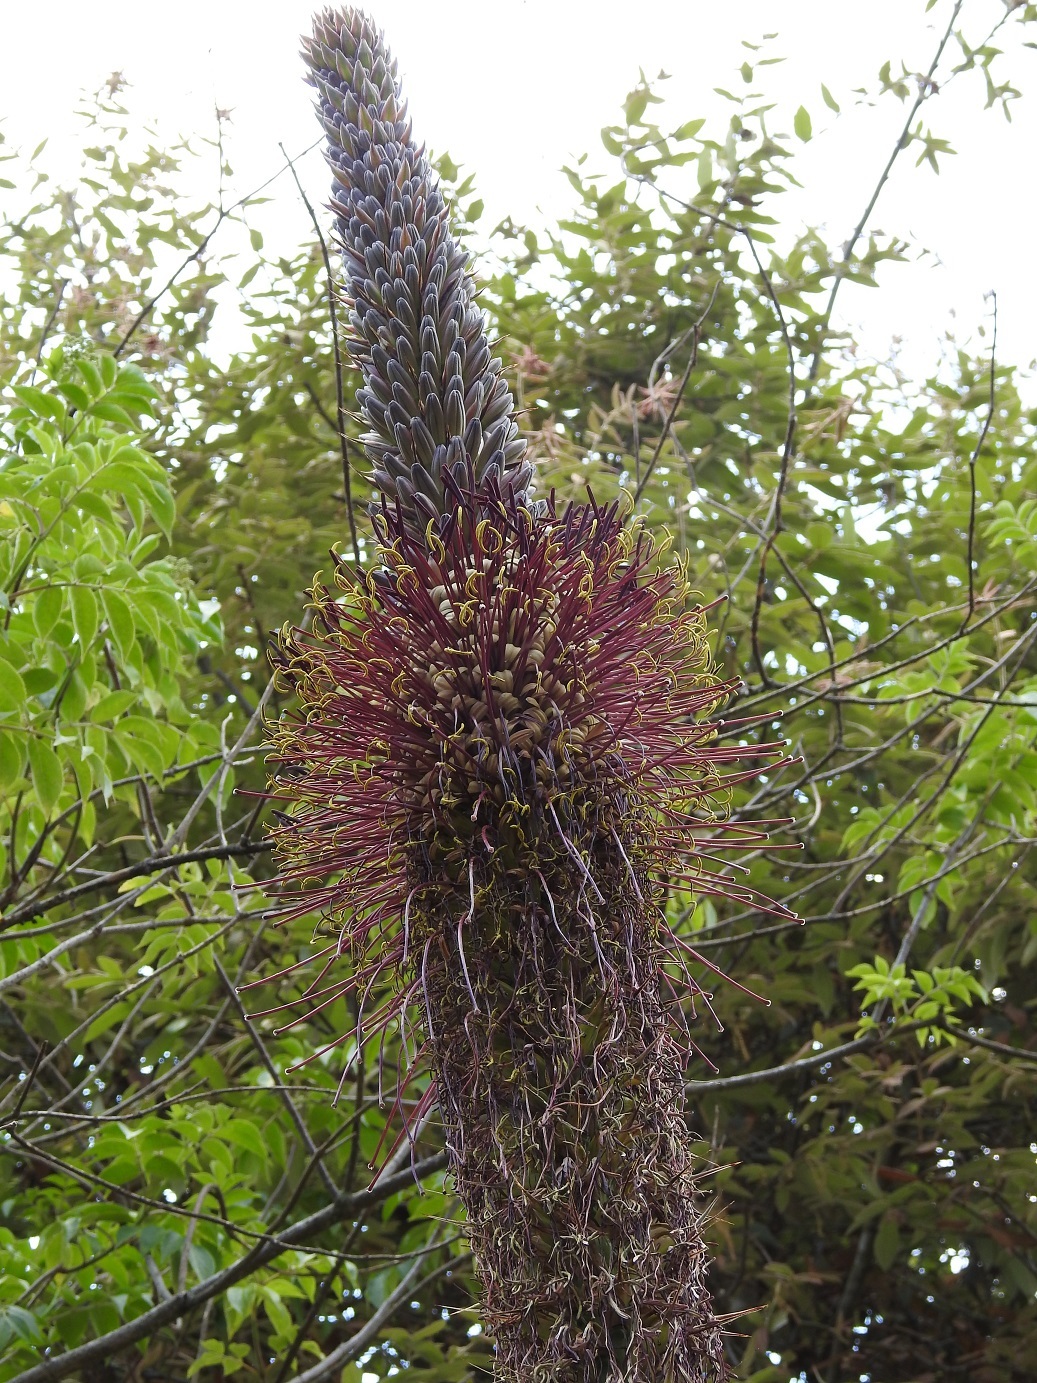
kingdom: Plantae
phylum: Tracheophyta
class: Liliopsida
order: Asparagales
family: Asparagaceae
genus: Agave
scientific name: Agave warelliana
